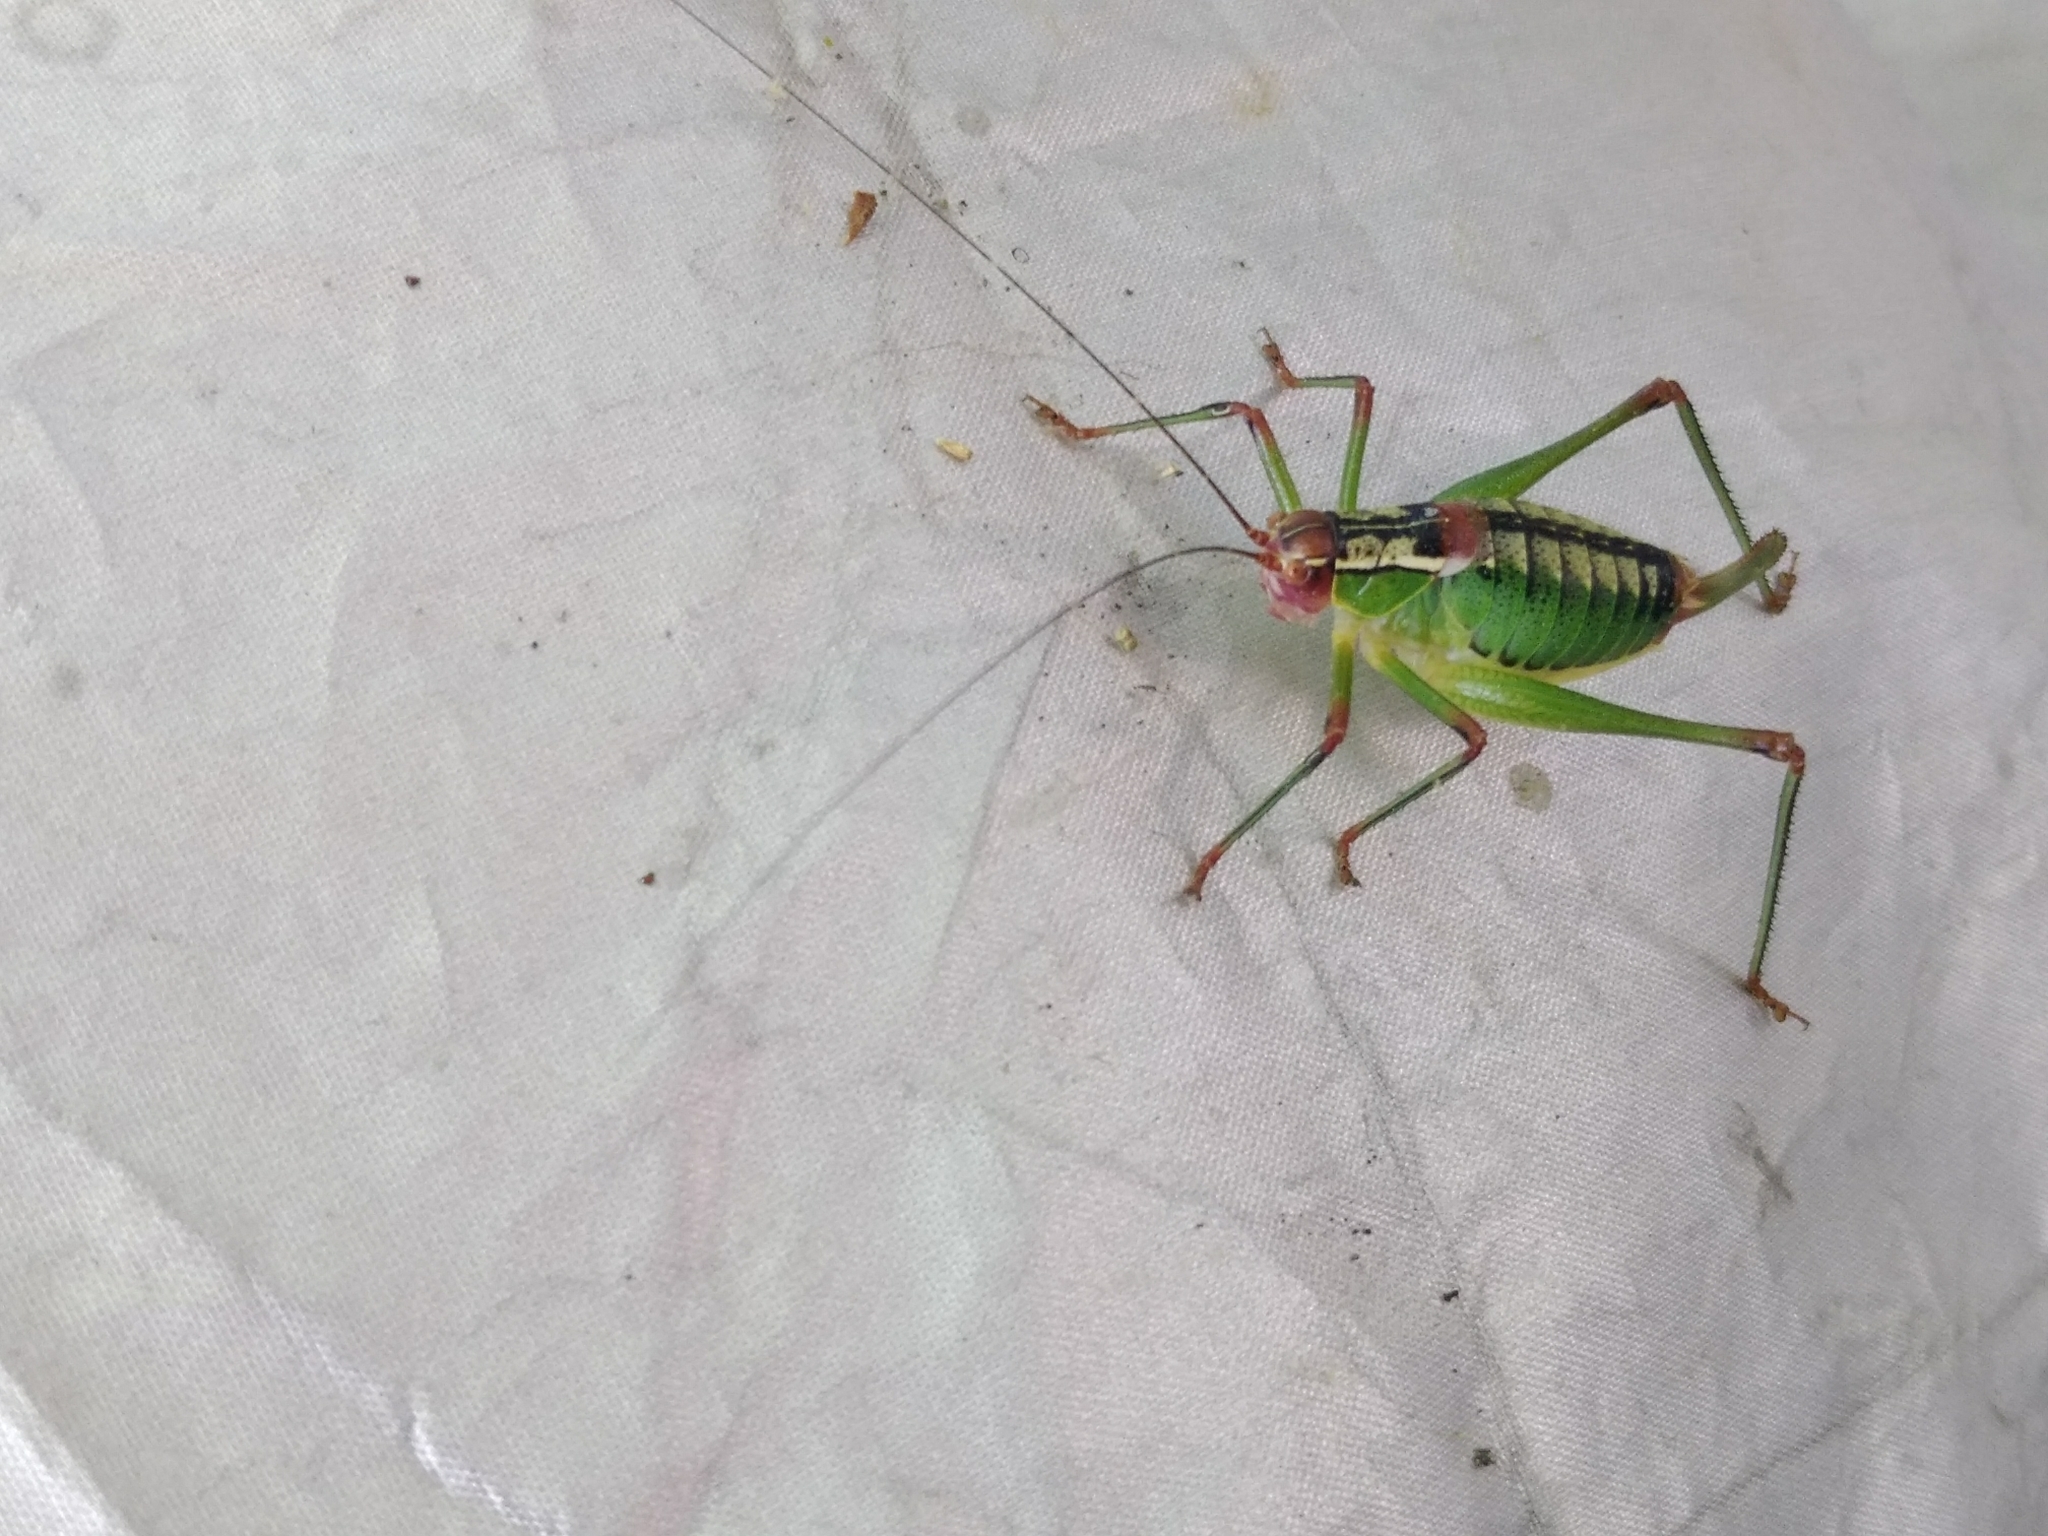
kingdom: Animalia
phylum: Arthropoda
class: Insecta
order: Orthoptera
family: Tettigoniidae
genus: Metaplastes
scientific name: Metaplastes ornatus
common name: Balkan ornate bush-cricket
